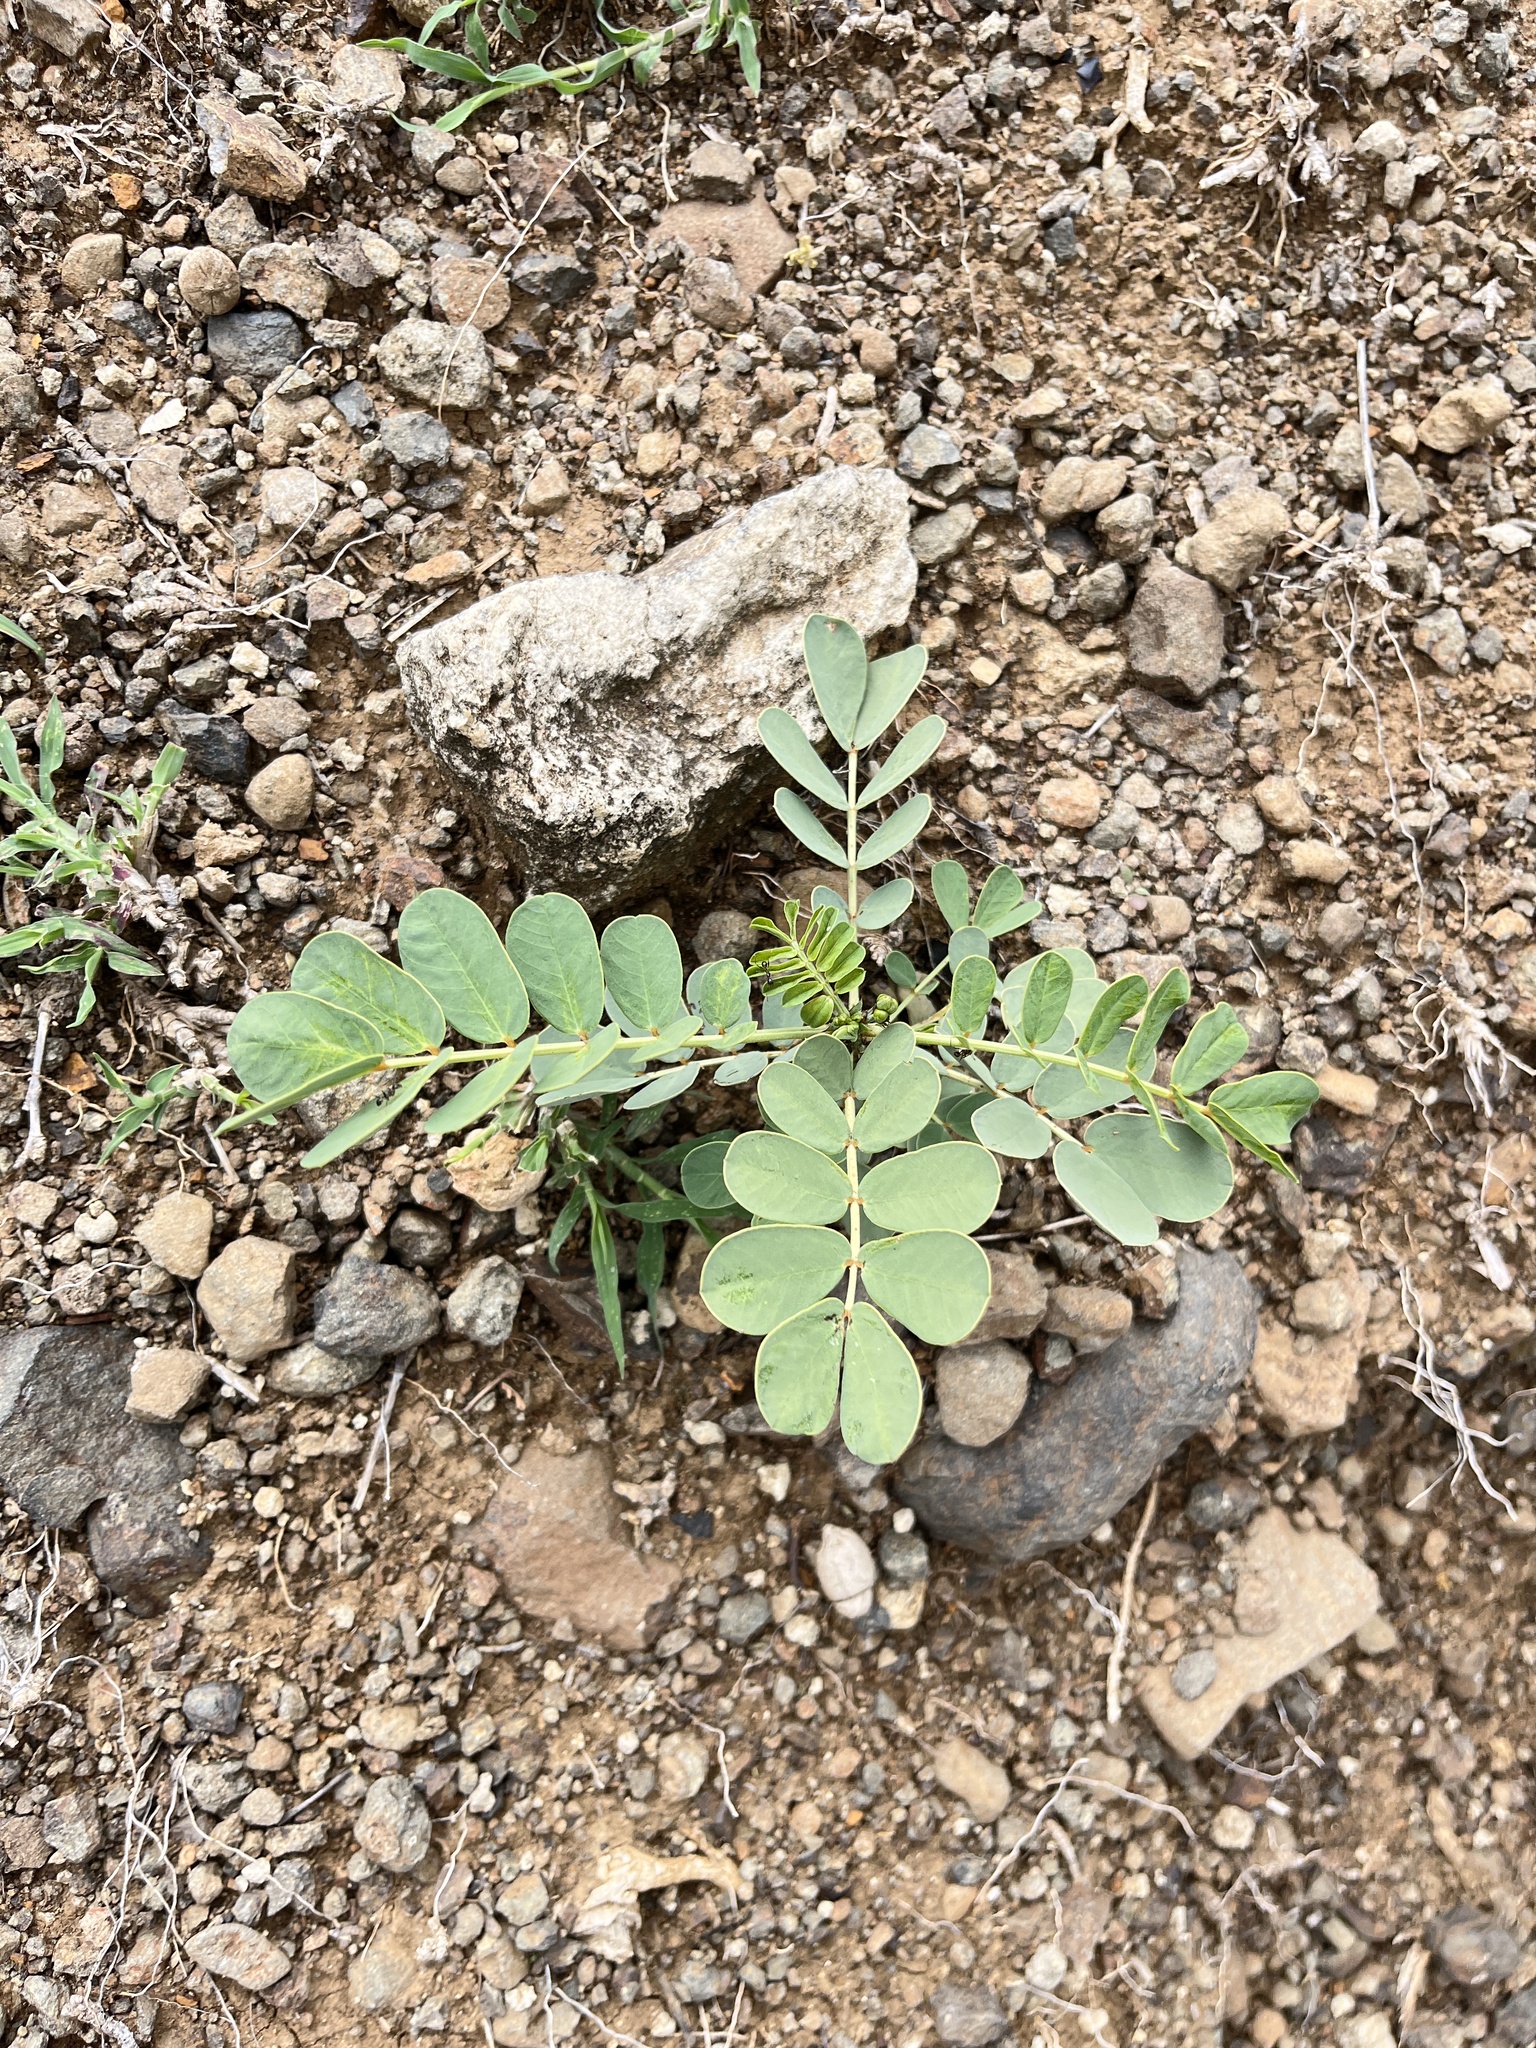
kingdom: Plantae
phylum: Tracheophyta
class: Magnoliopsida
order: Fabales
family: Fabaceae
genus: Senna
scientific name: Senna didymobotrya
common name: African senna
